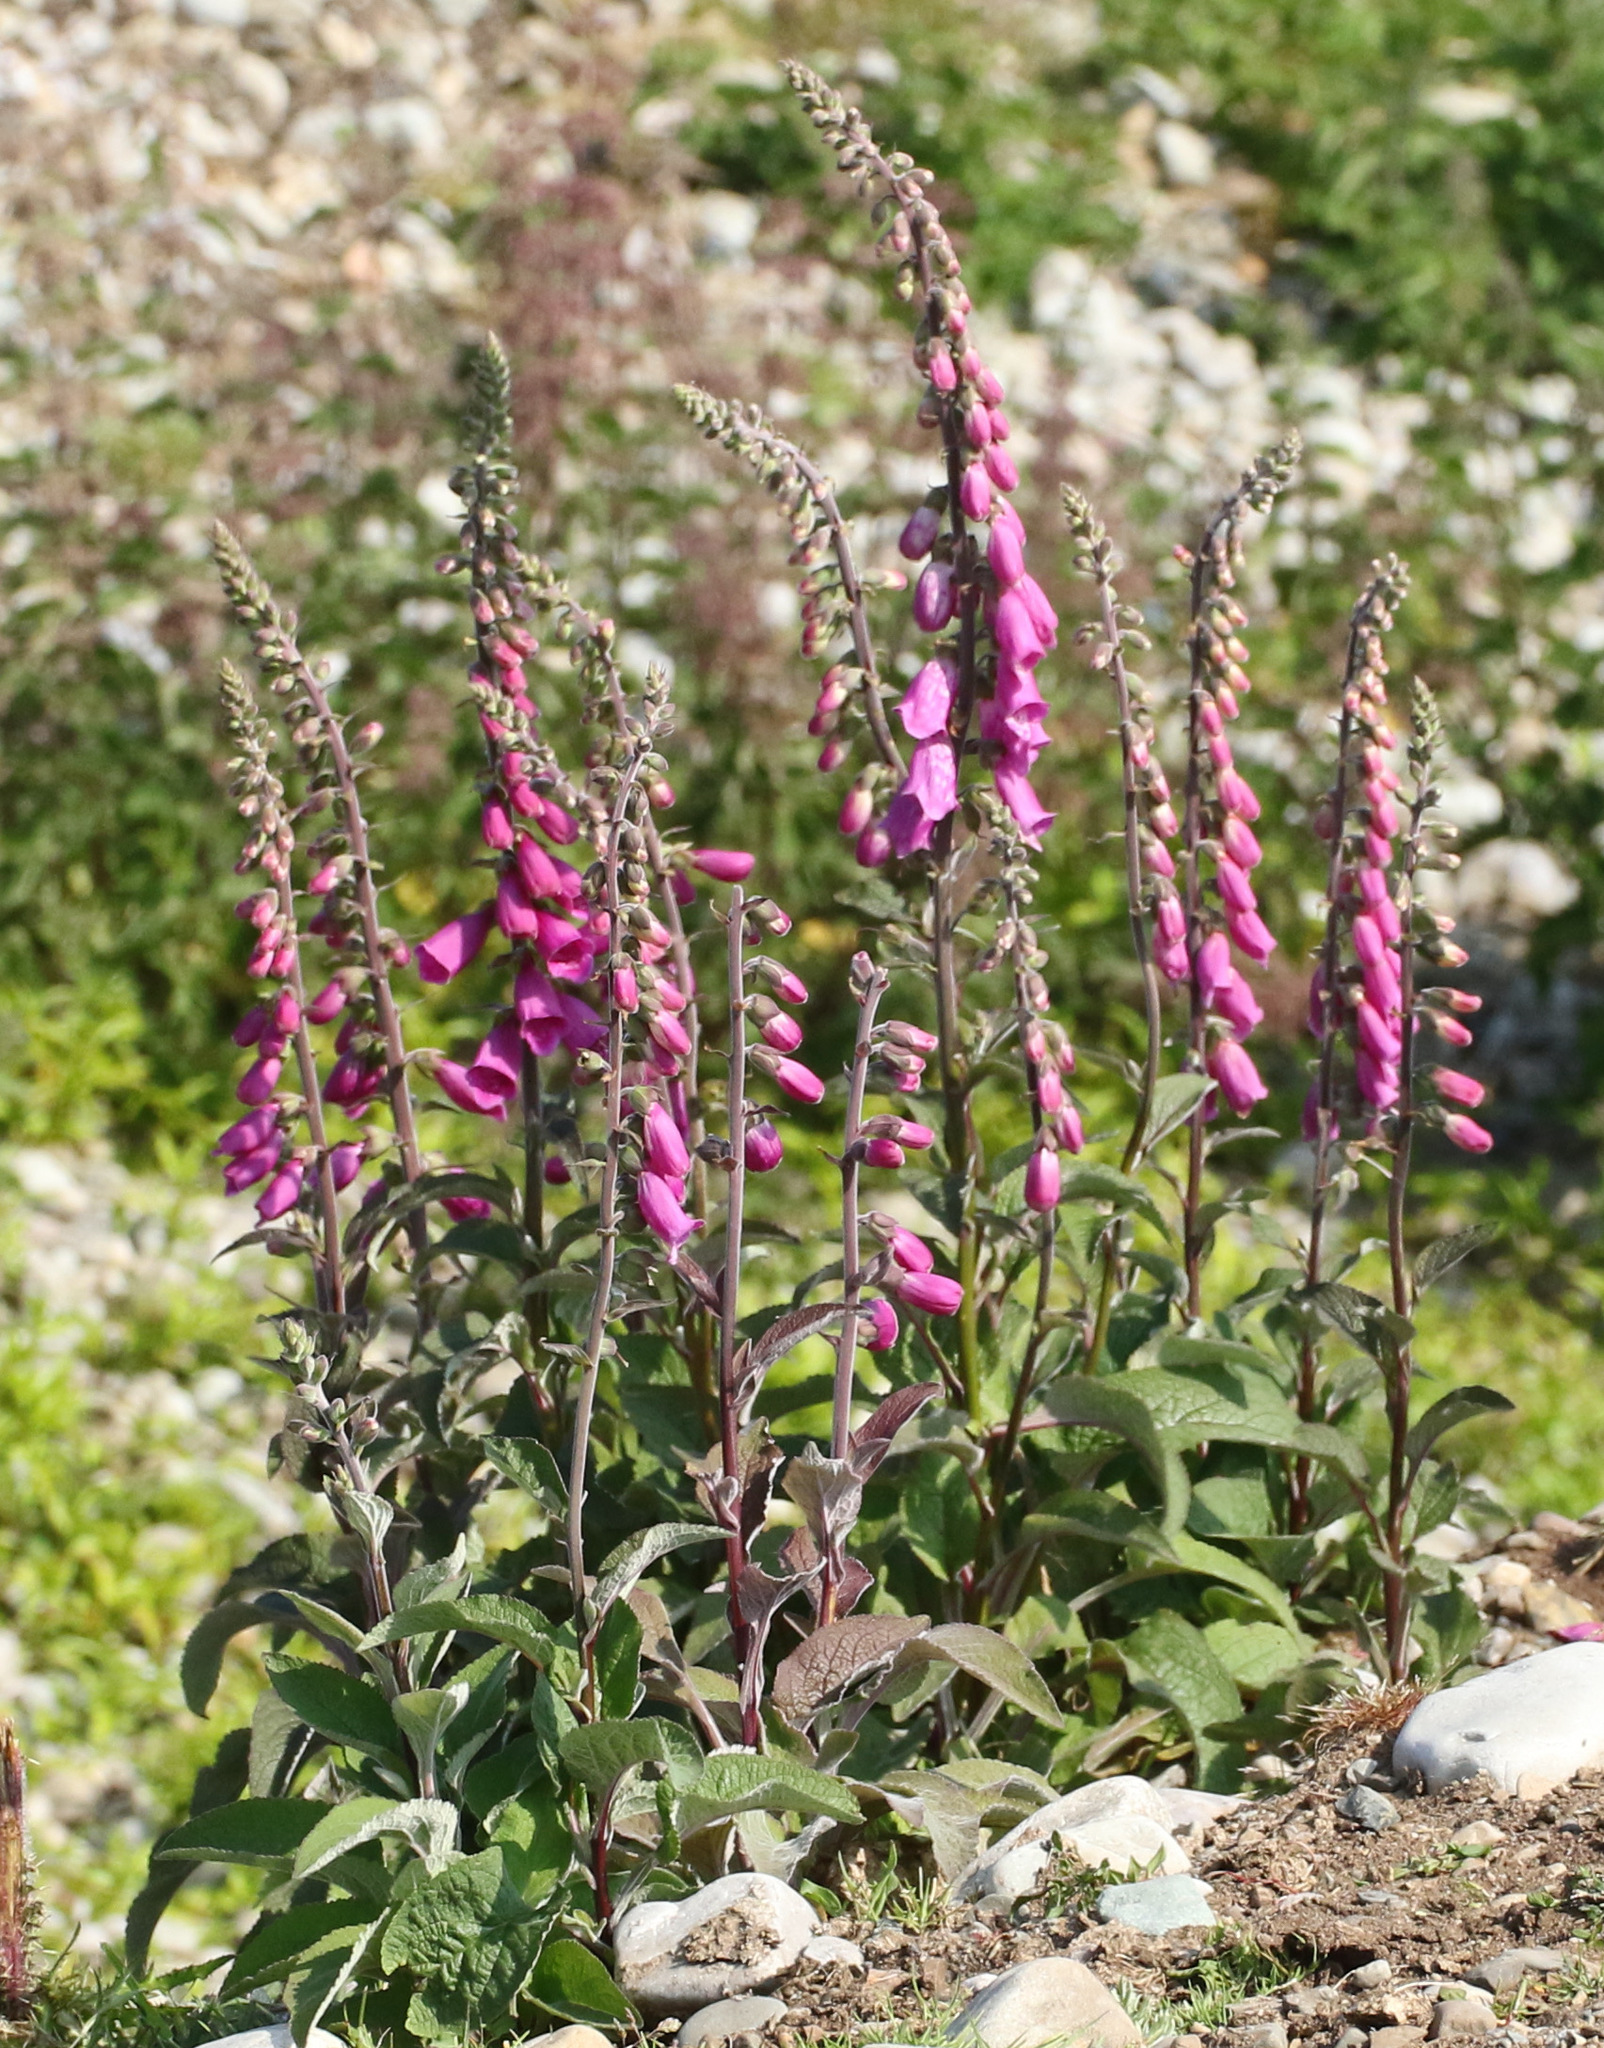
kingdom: Plantae
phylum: Tracheophyta
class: Magnoliopsida
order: Lamiales
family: Plantaginaceae
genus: Digitalis
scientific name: Digitalis purpurea
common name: Foxglove
